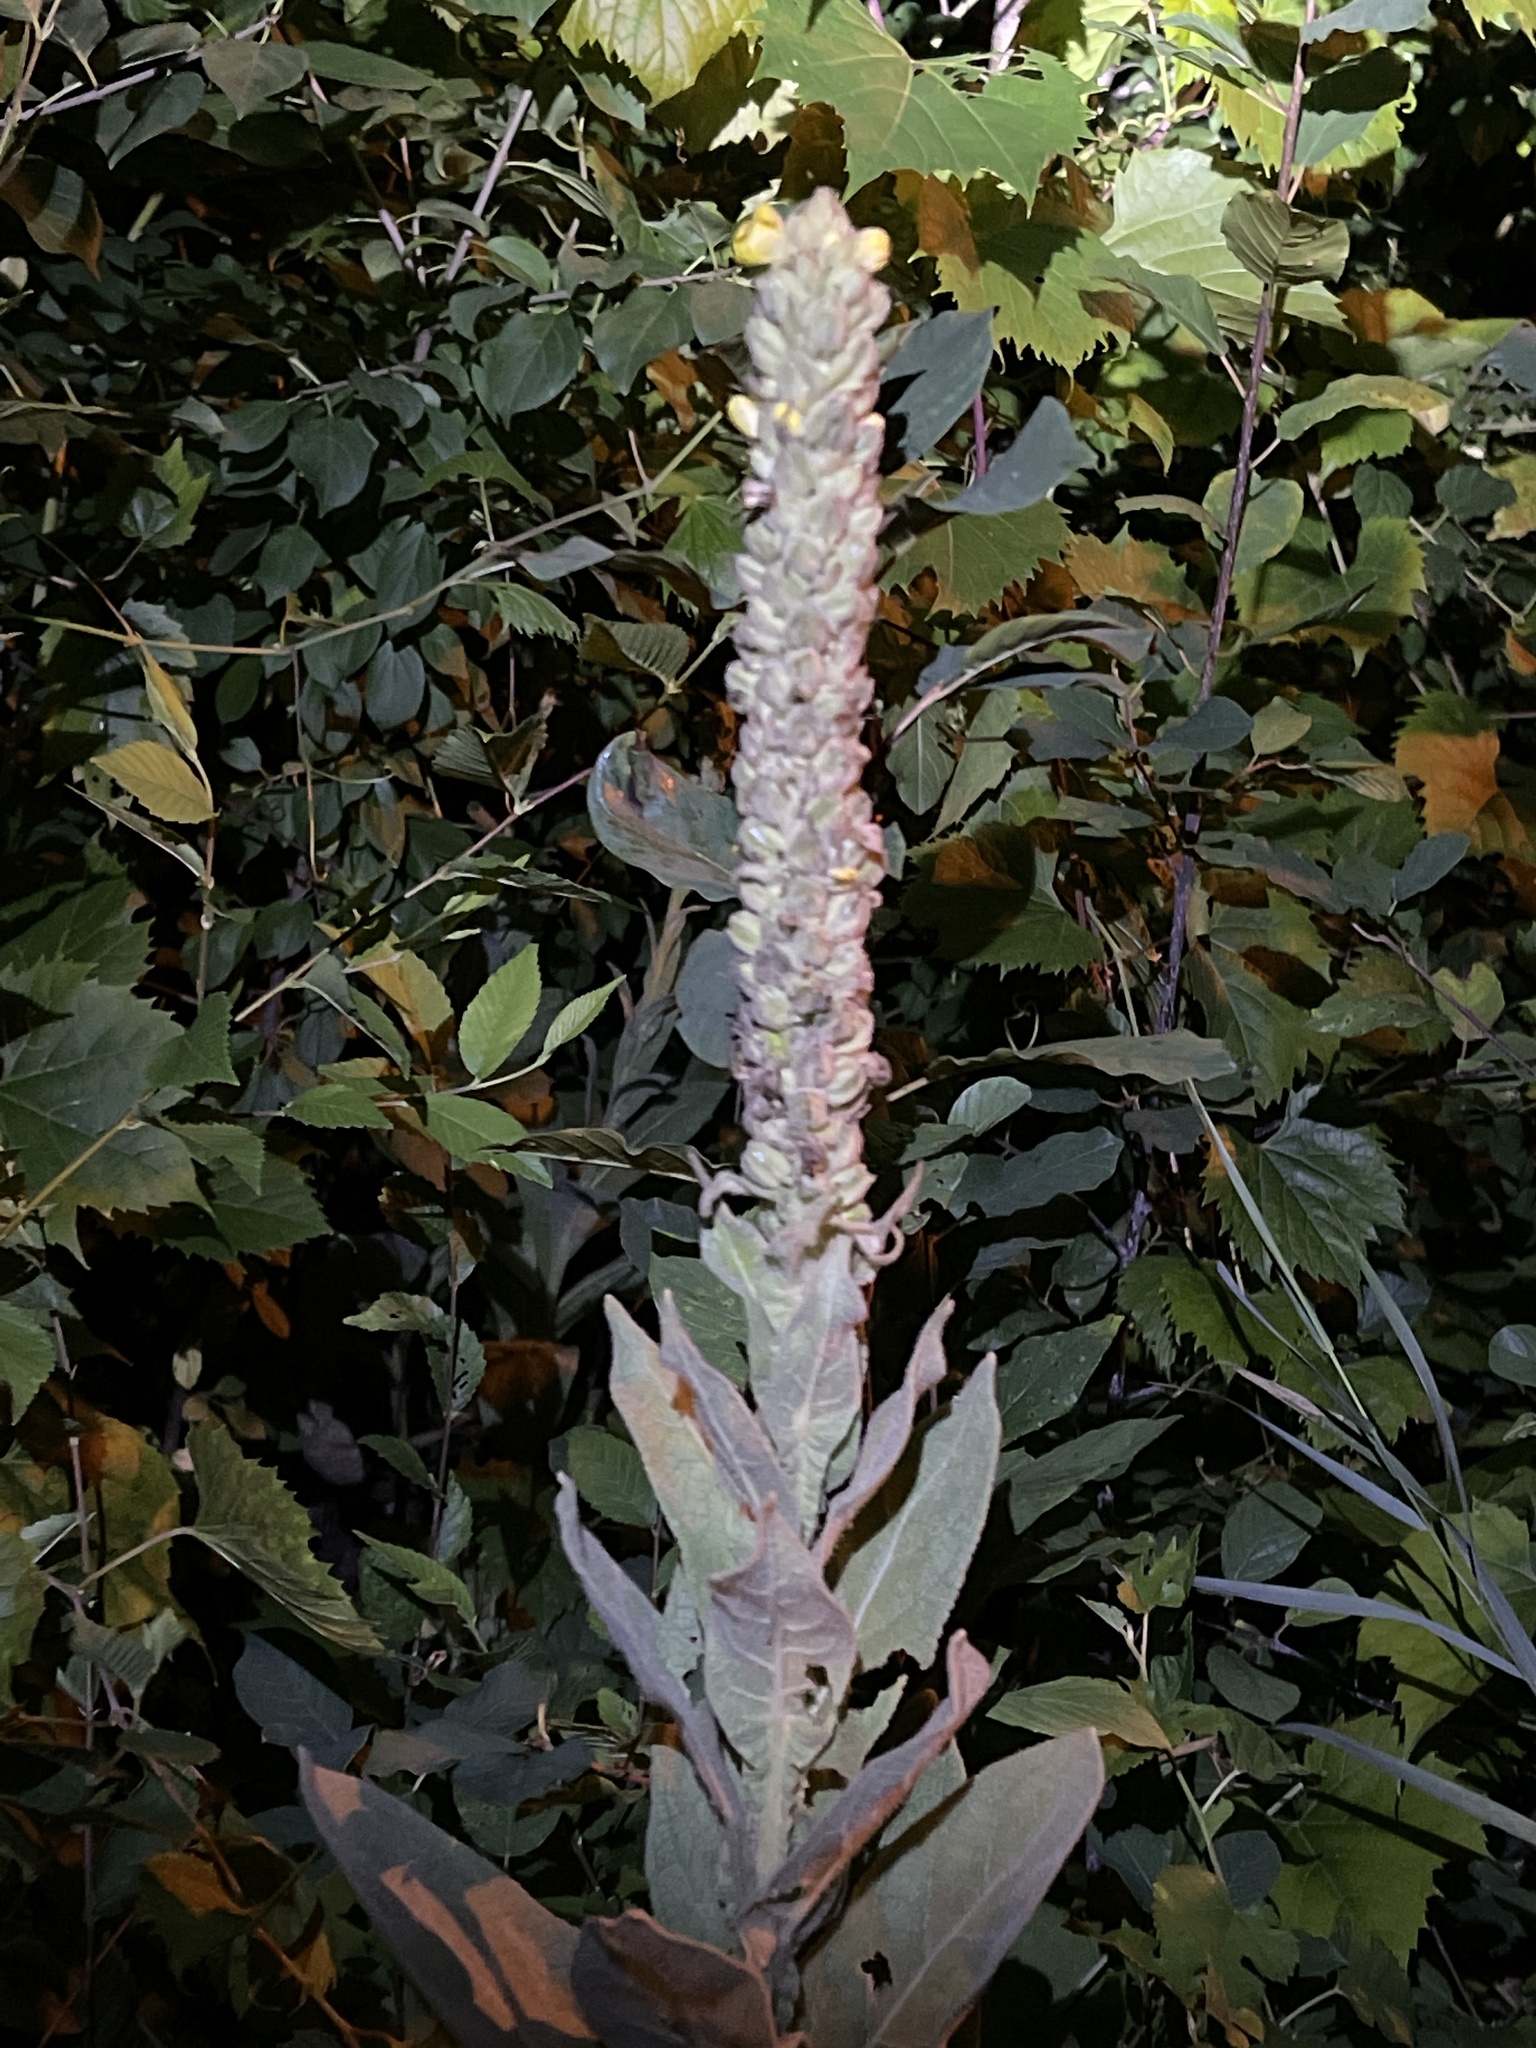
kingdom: Plantae
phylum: Tracheophyta
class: Magnoliopsida
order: Lamiales
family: Scrophulariaceae
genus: Verbascum
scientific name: Verbascum thapsus
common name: Common mullein
